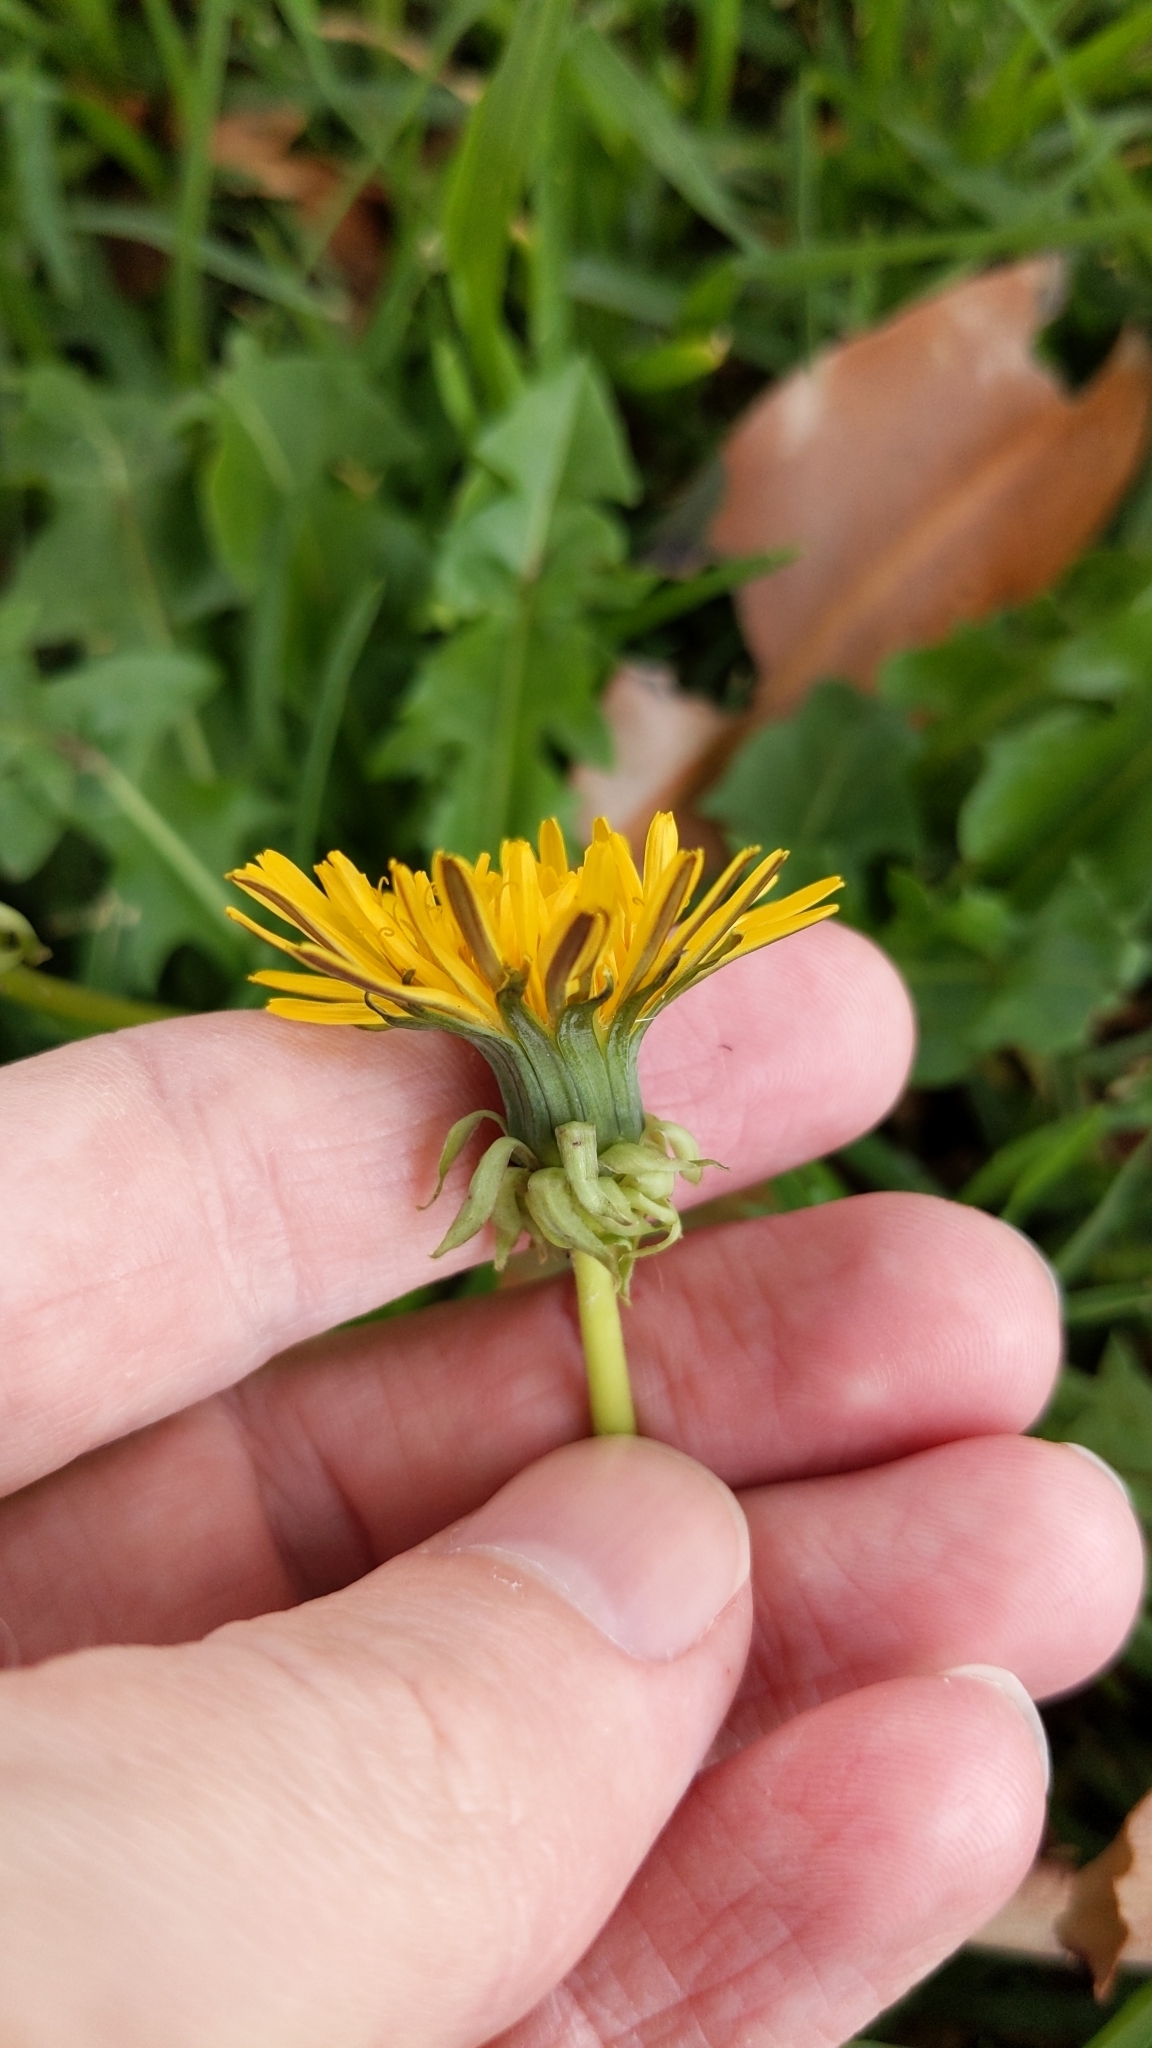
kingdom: Plantae
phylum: Tracheophyta
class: Magnoliopsida
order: Asterales
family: Asteraceae
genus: Taraxacum
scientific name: Taraxacum officinale
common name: Common dandelion
